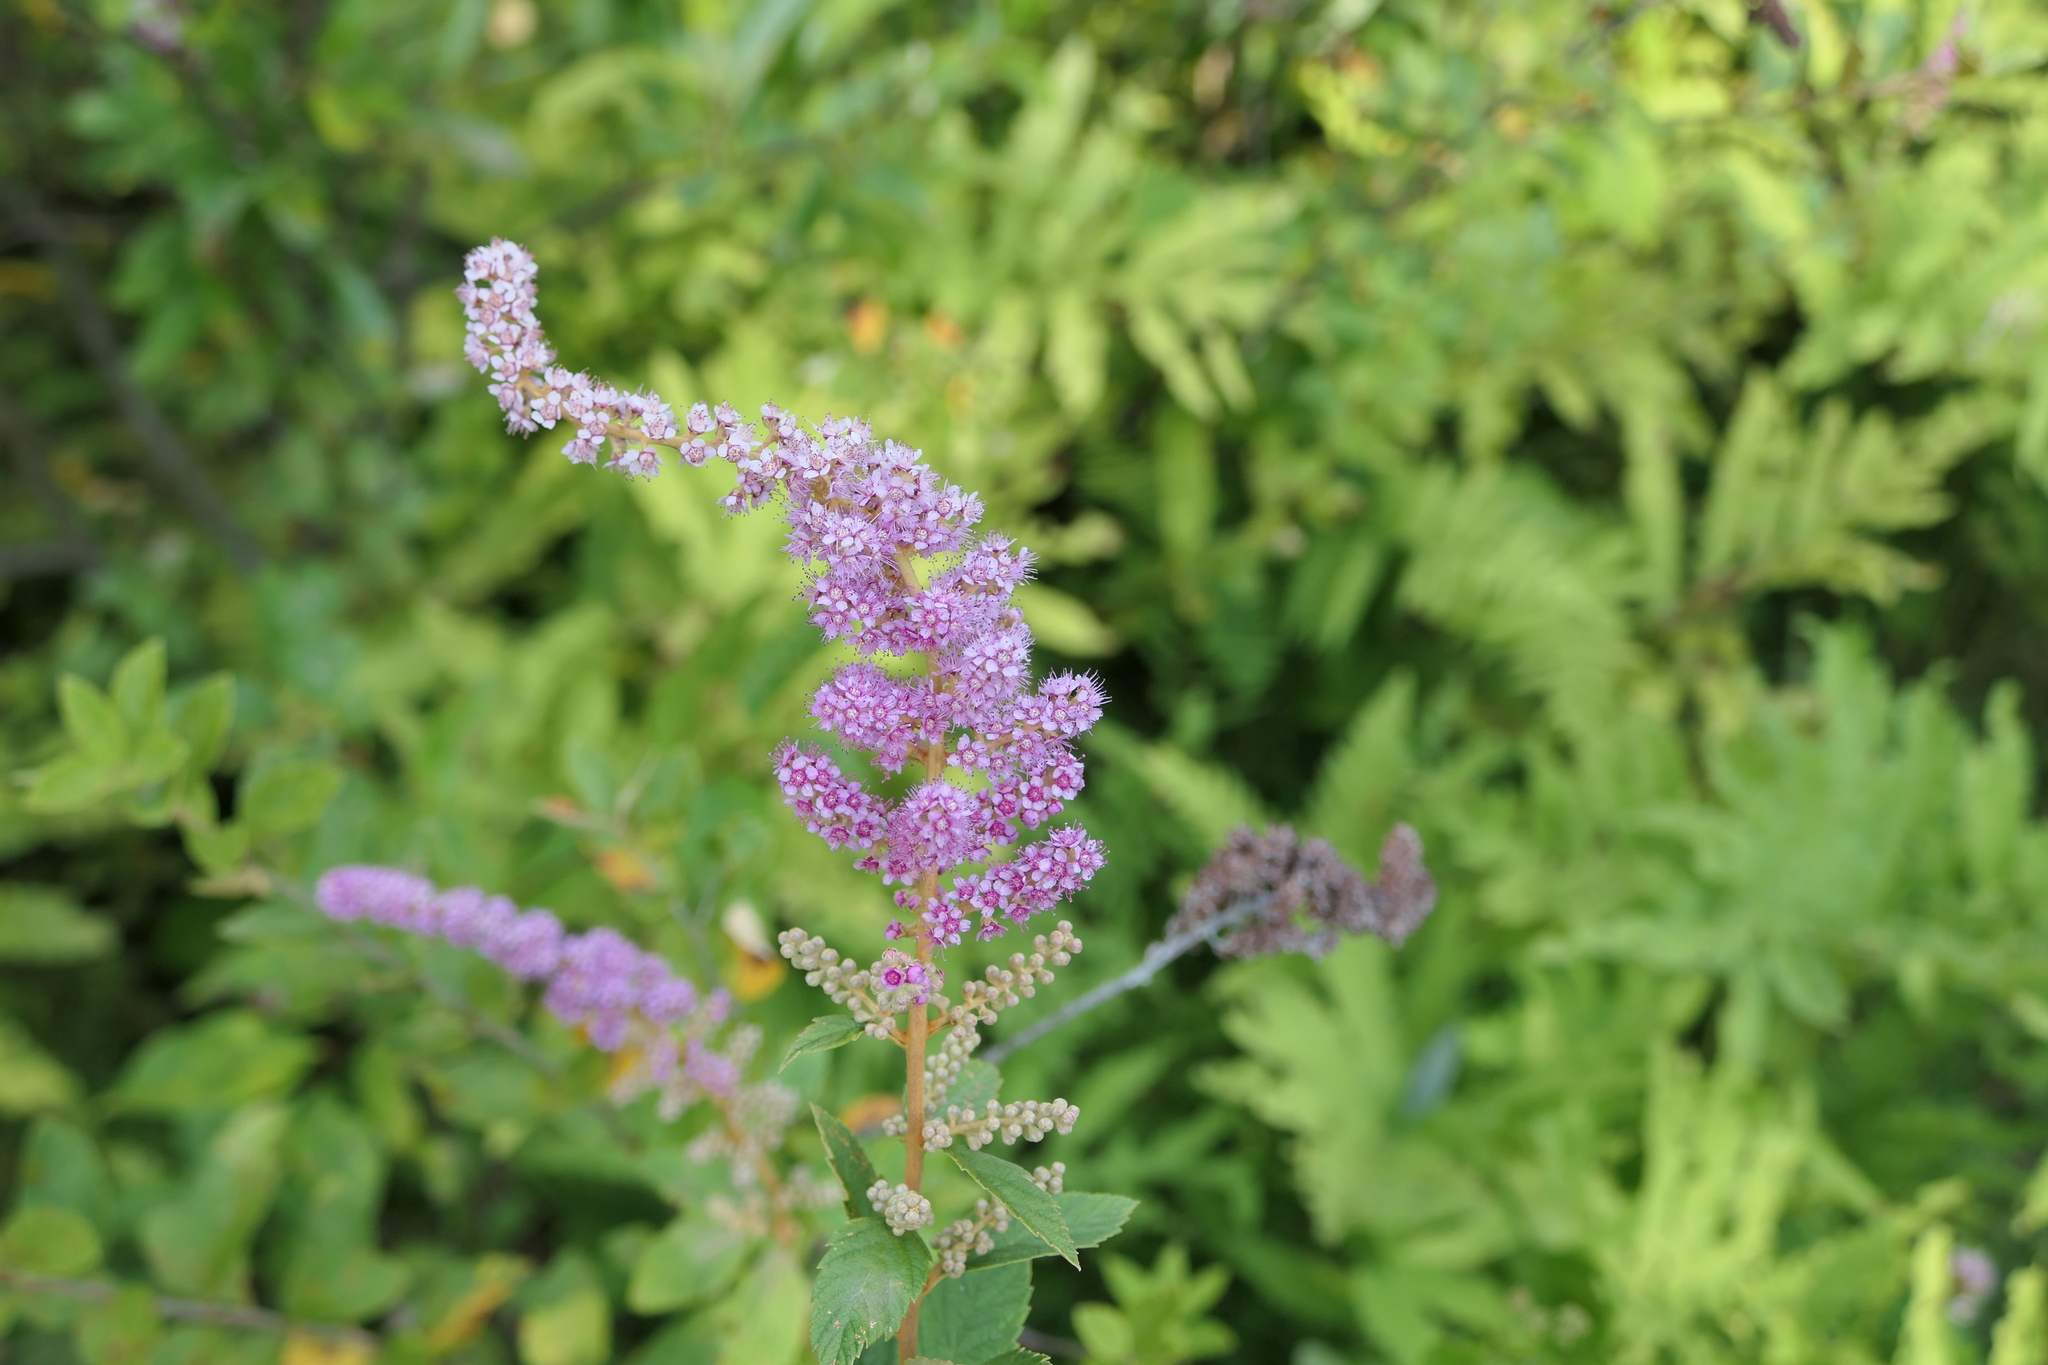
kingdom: Plantae
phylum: Tracheophyta
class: Magnoliopsida
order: Rosales
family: Rosaceae
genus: Spiraea
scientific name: Spiraea tomentosa
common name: Hardhack
